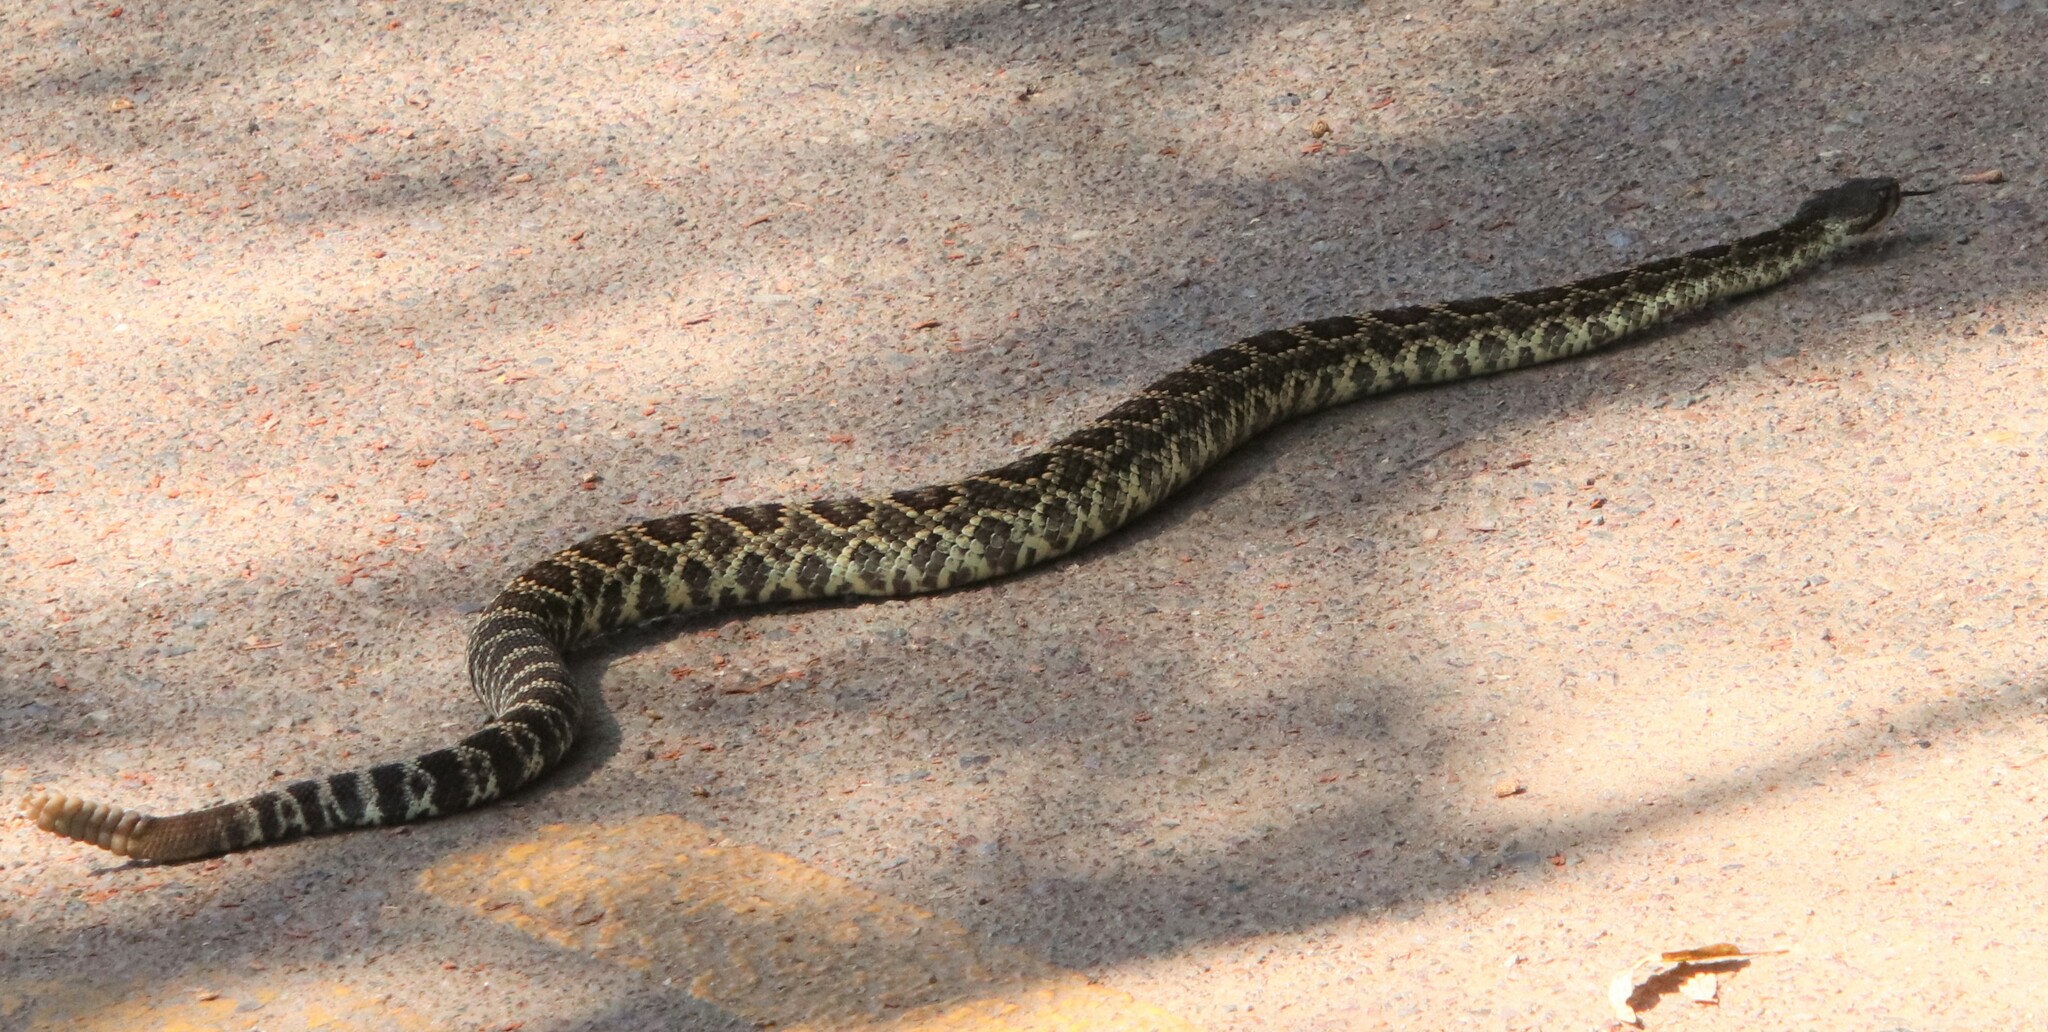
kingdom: Animalia
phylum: Chordata
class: Squamata
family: Viperidae
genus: Crotalus
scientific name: Crotalus oreganus
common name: Abyssus
